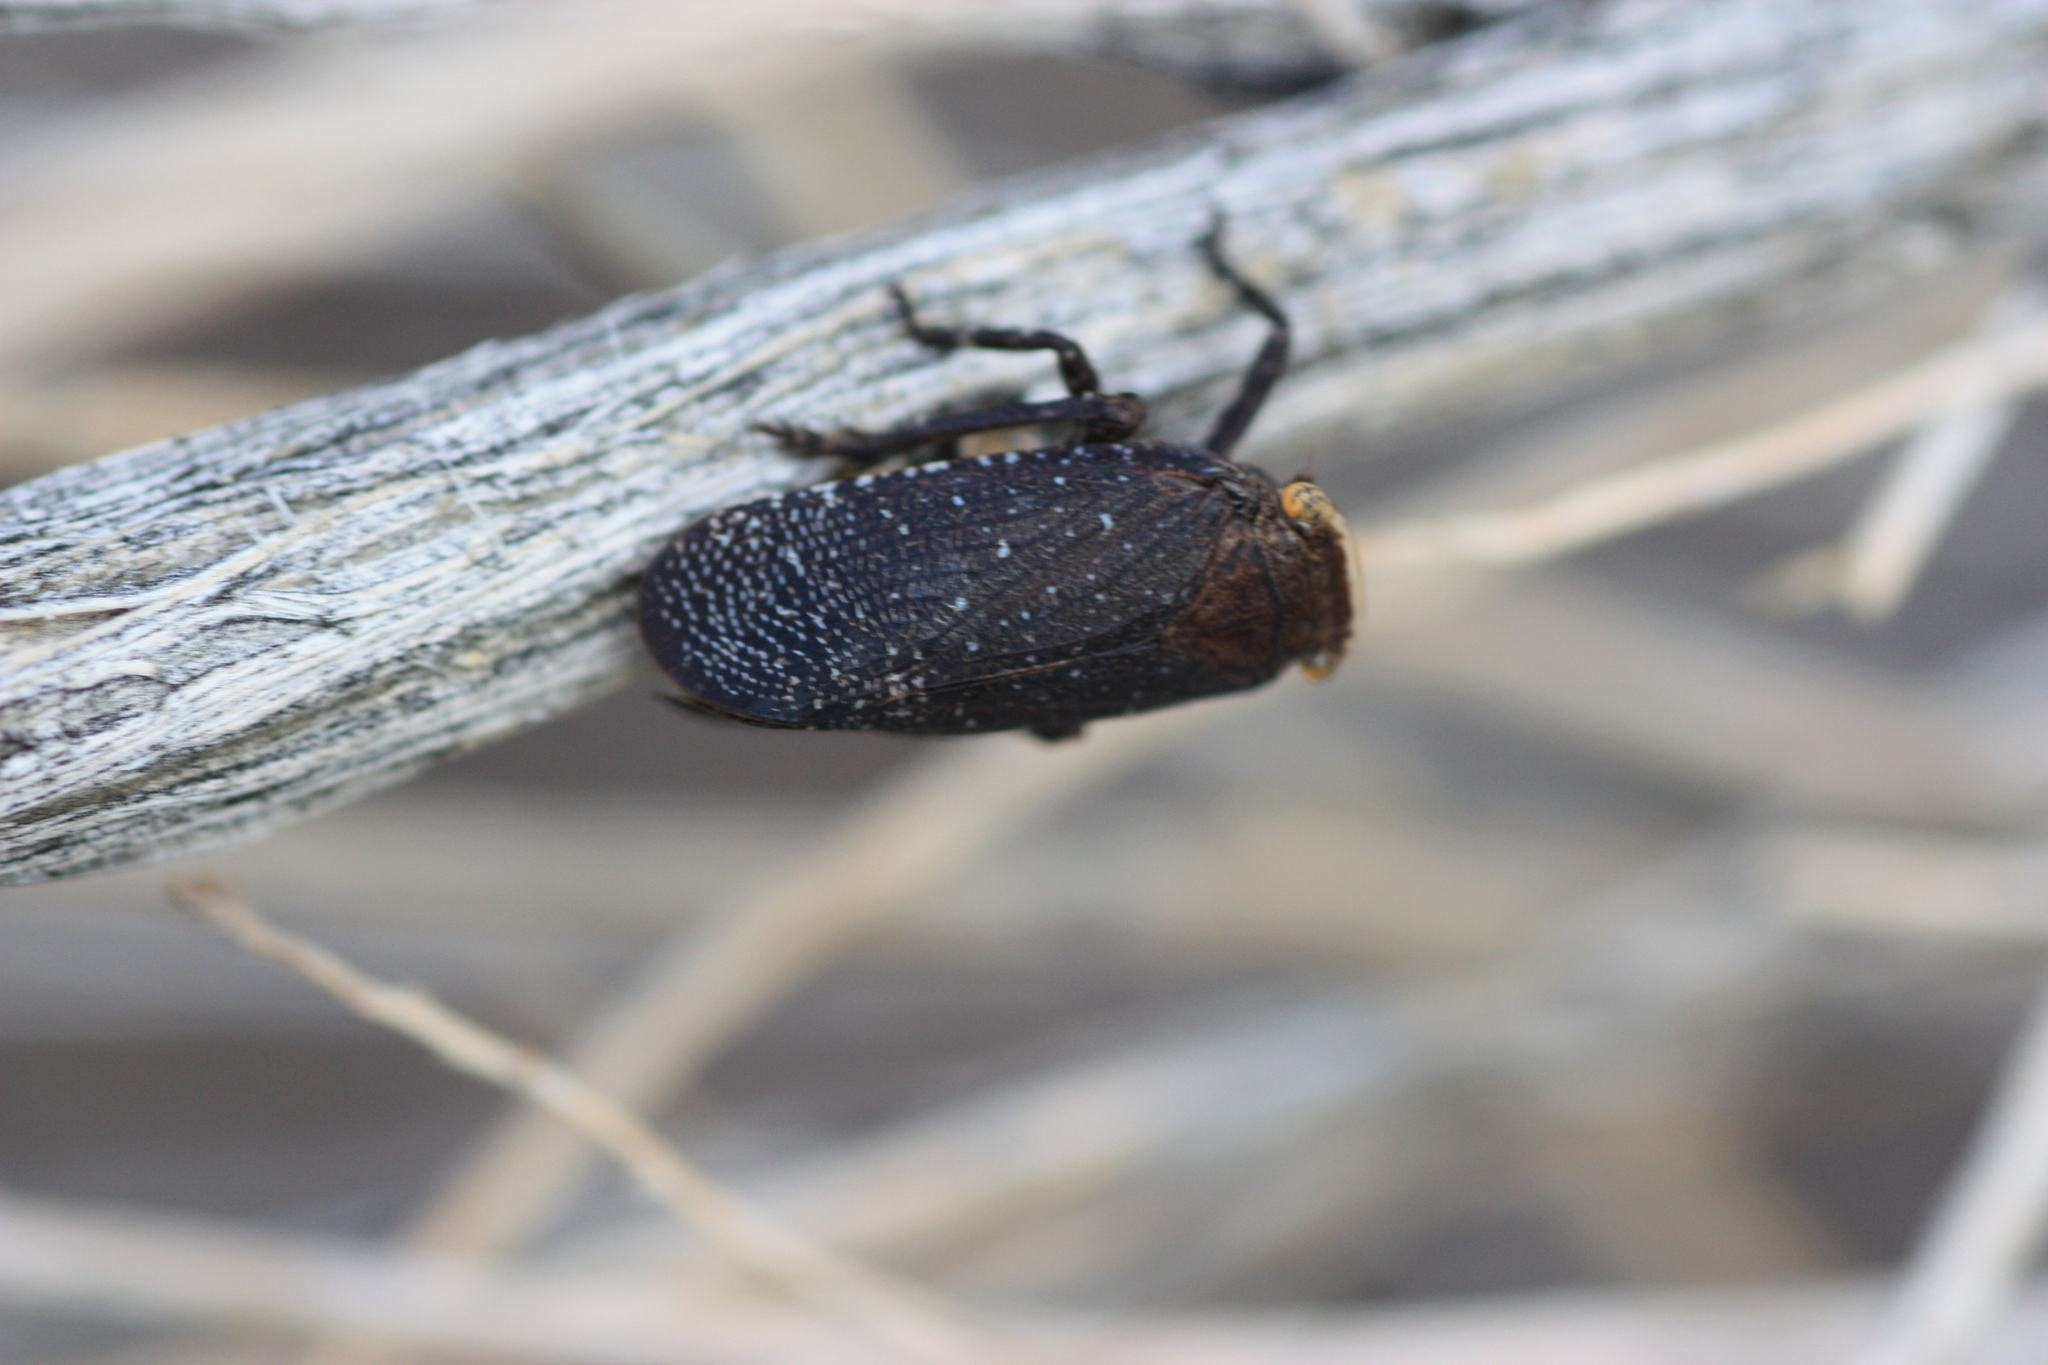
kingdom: Animalia
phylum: Arthropoda
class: Insecta
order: Hemiptera
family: Fulgoridae
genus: Crepusia
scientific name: Crepusia fuliginosa
